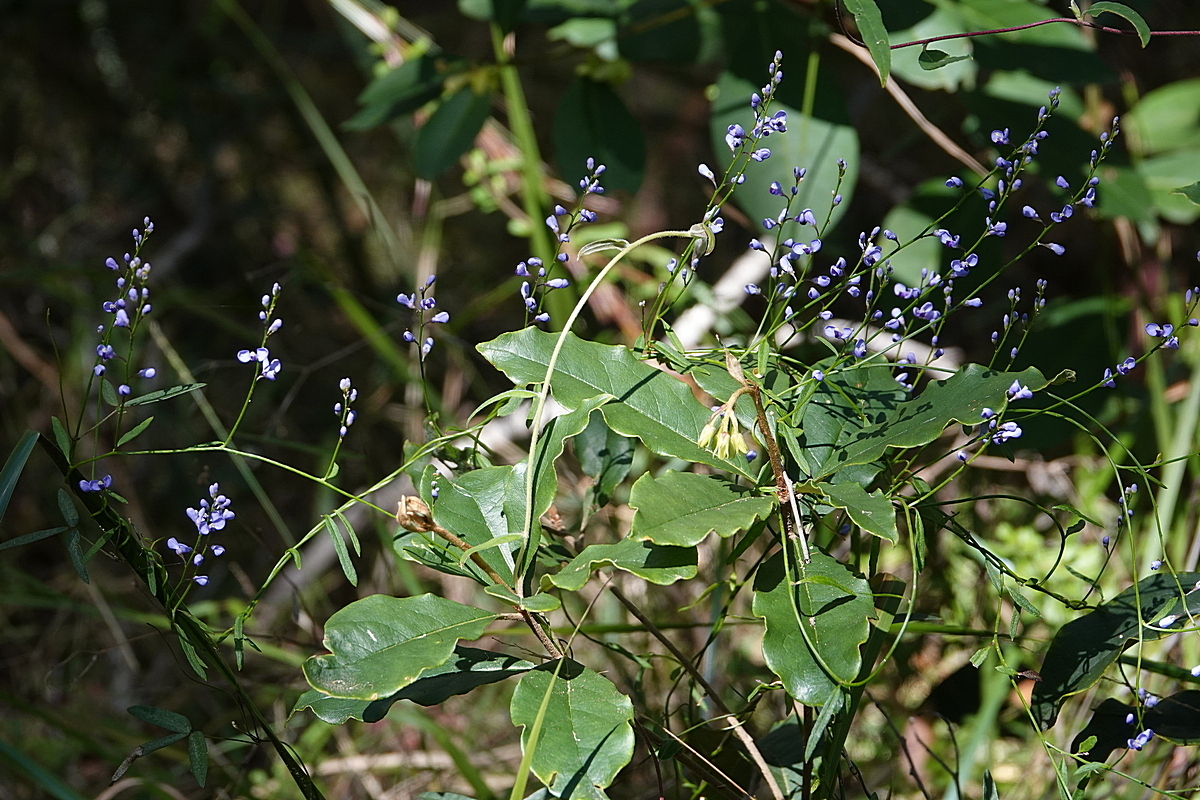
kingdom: Plantae
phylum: Tracheophyta
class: Magnoliopsida
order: Fabales
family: Polygalaceae
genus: Comesperma
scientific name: Comesperma volubile
